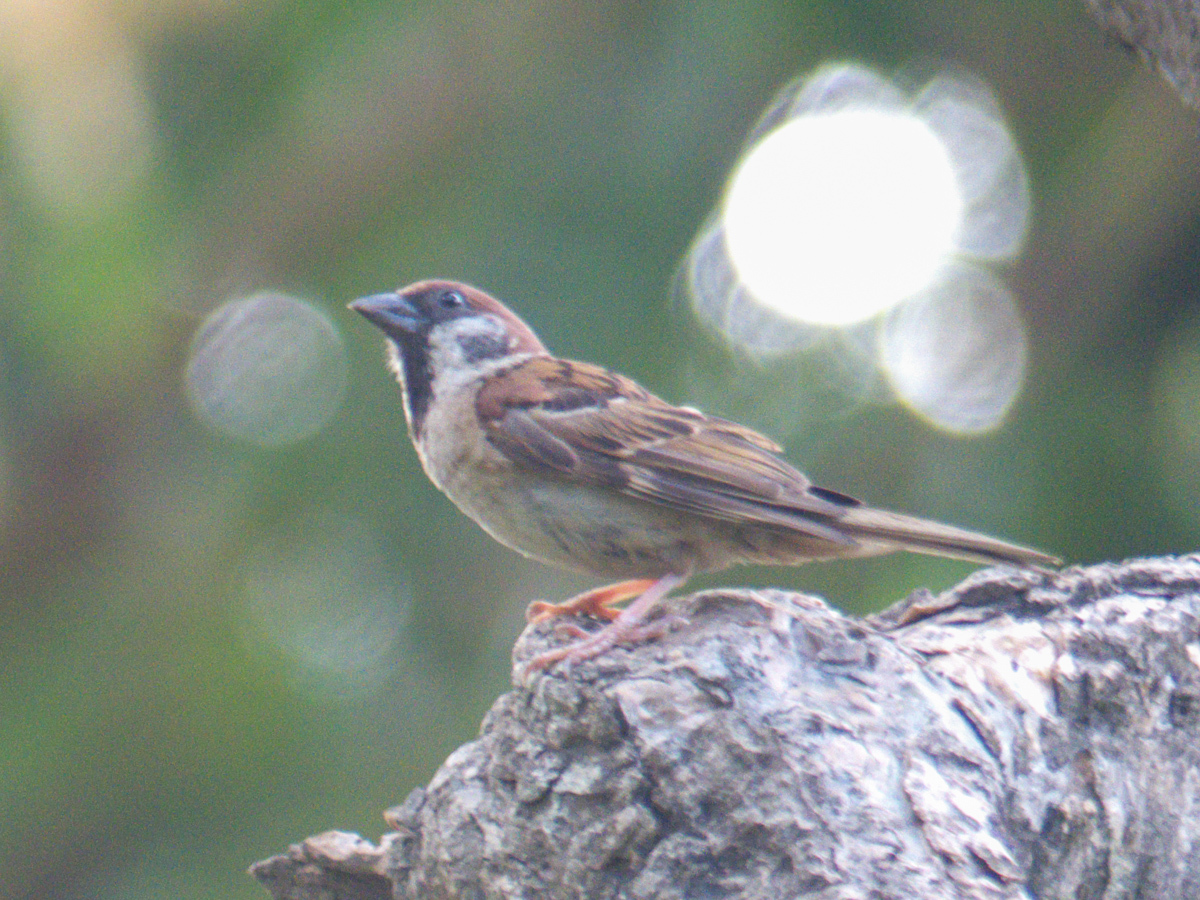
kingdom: Animalia
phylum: Chordata
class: Aves
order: Passeriformes
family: Passeridae
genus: Passer
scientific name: Passer montanus
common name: Eurasian tree sparrow
